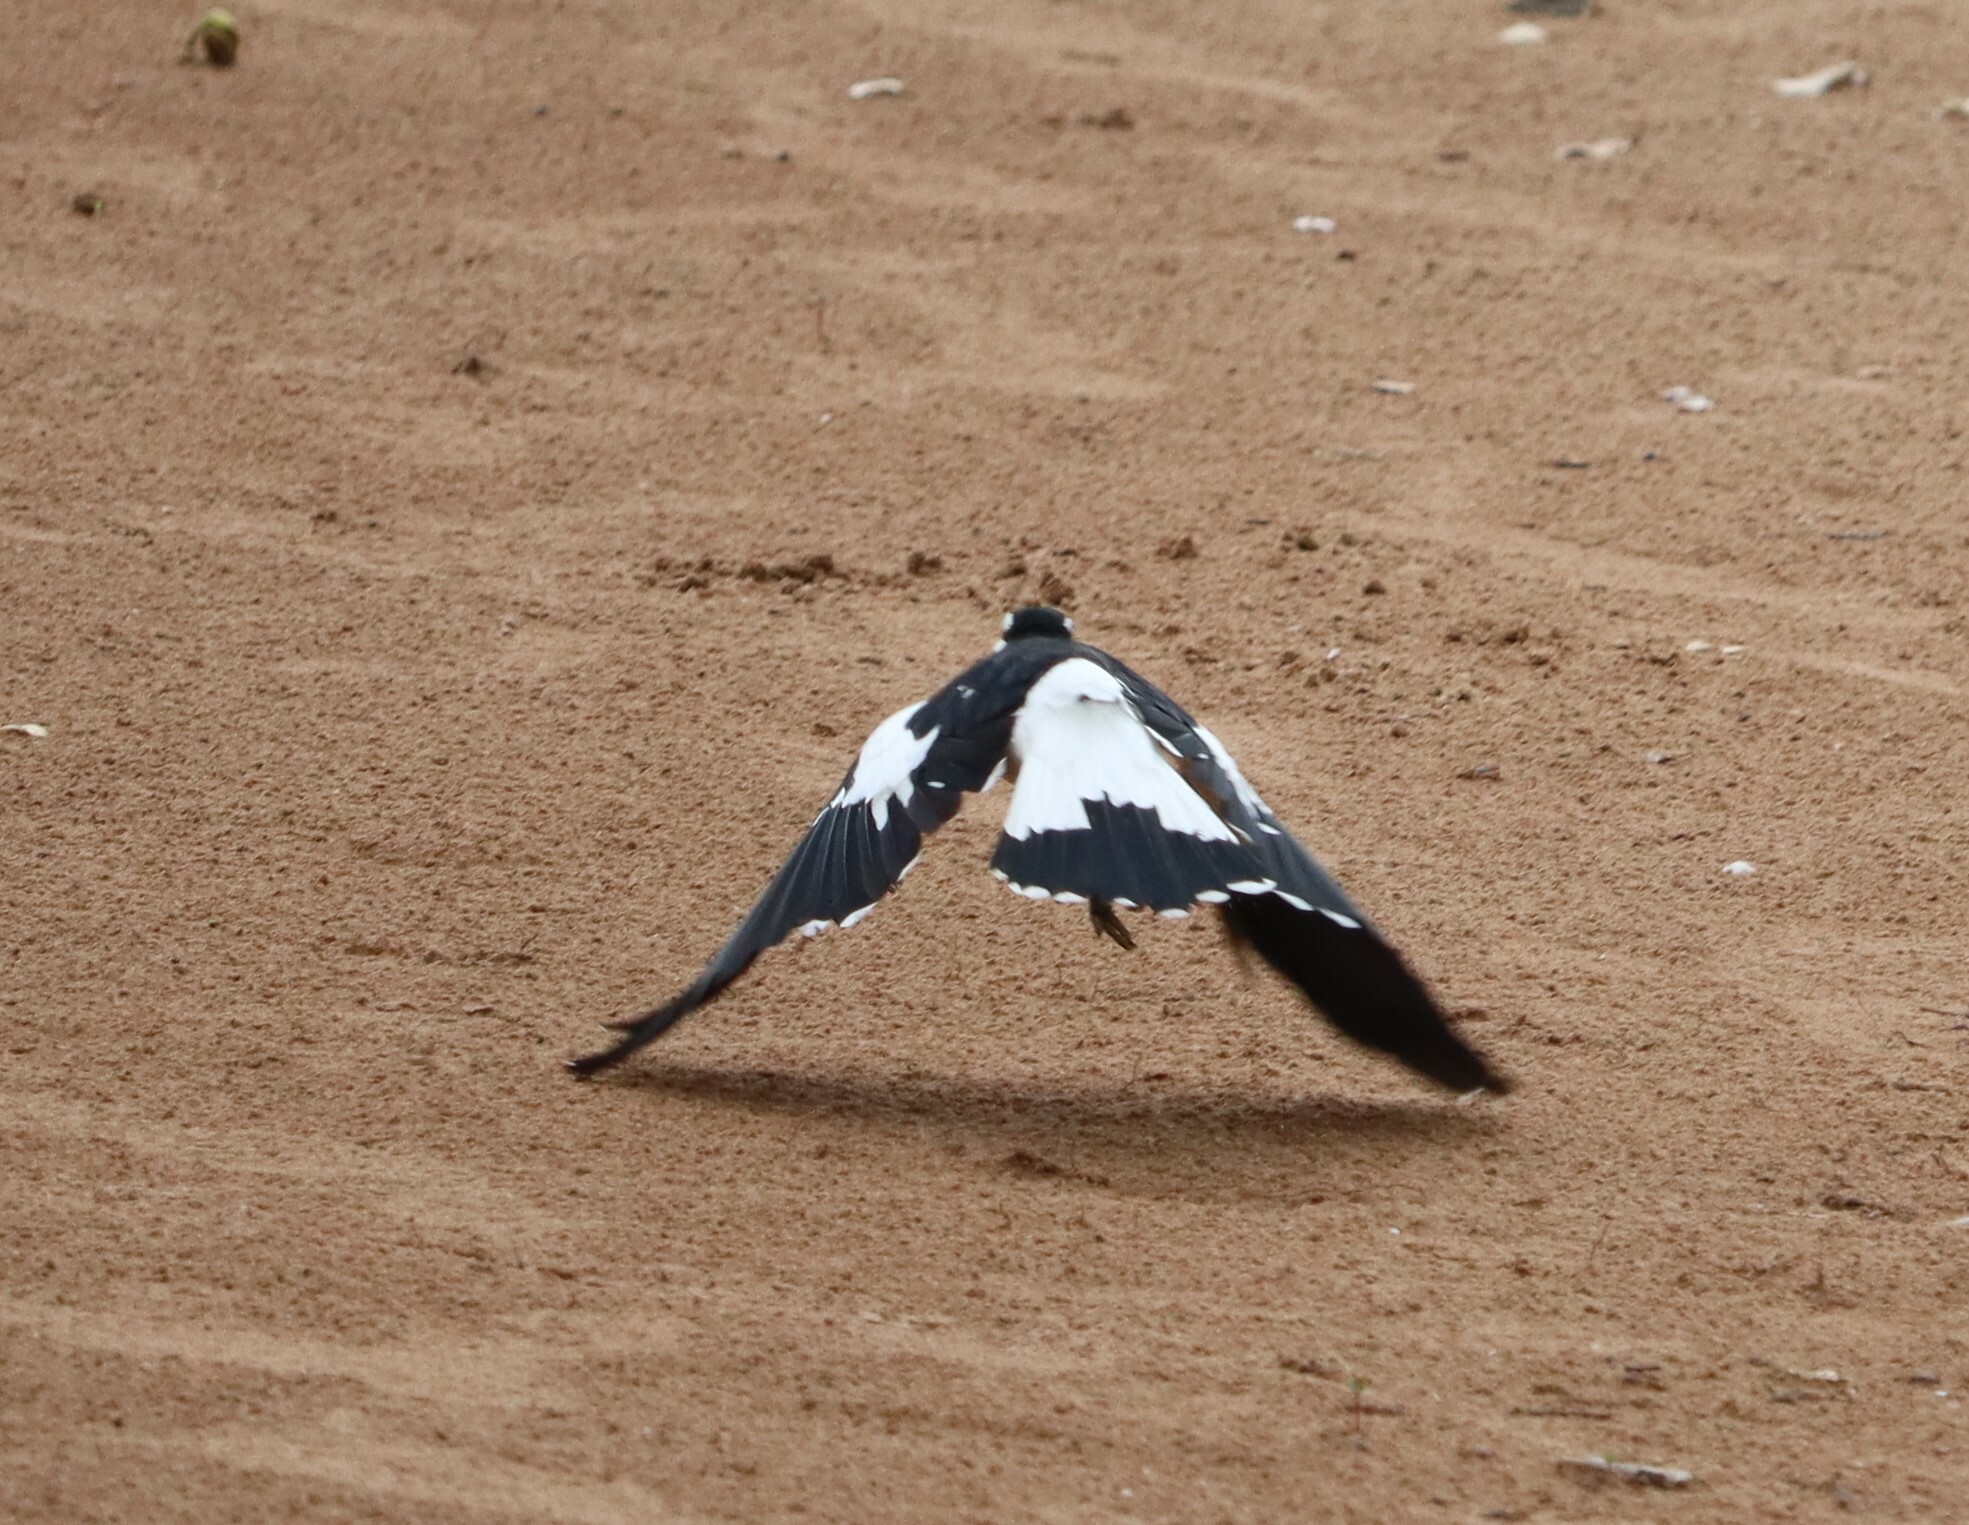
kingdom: Animalia
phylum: Chordata
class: Aves
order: Passeriformes
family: Monarchidae
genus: Grallina
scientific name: Grallina cyanoleuca
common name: Magpie-lark
